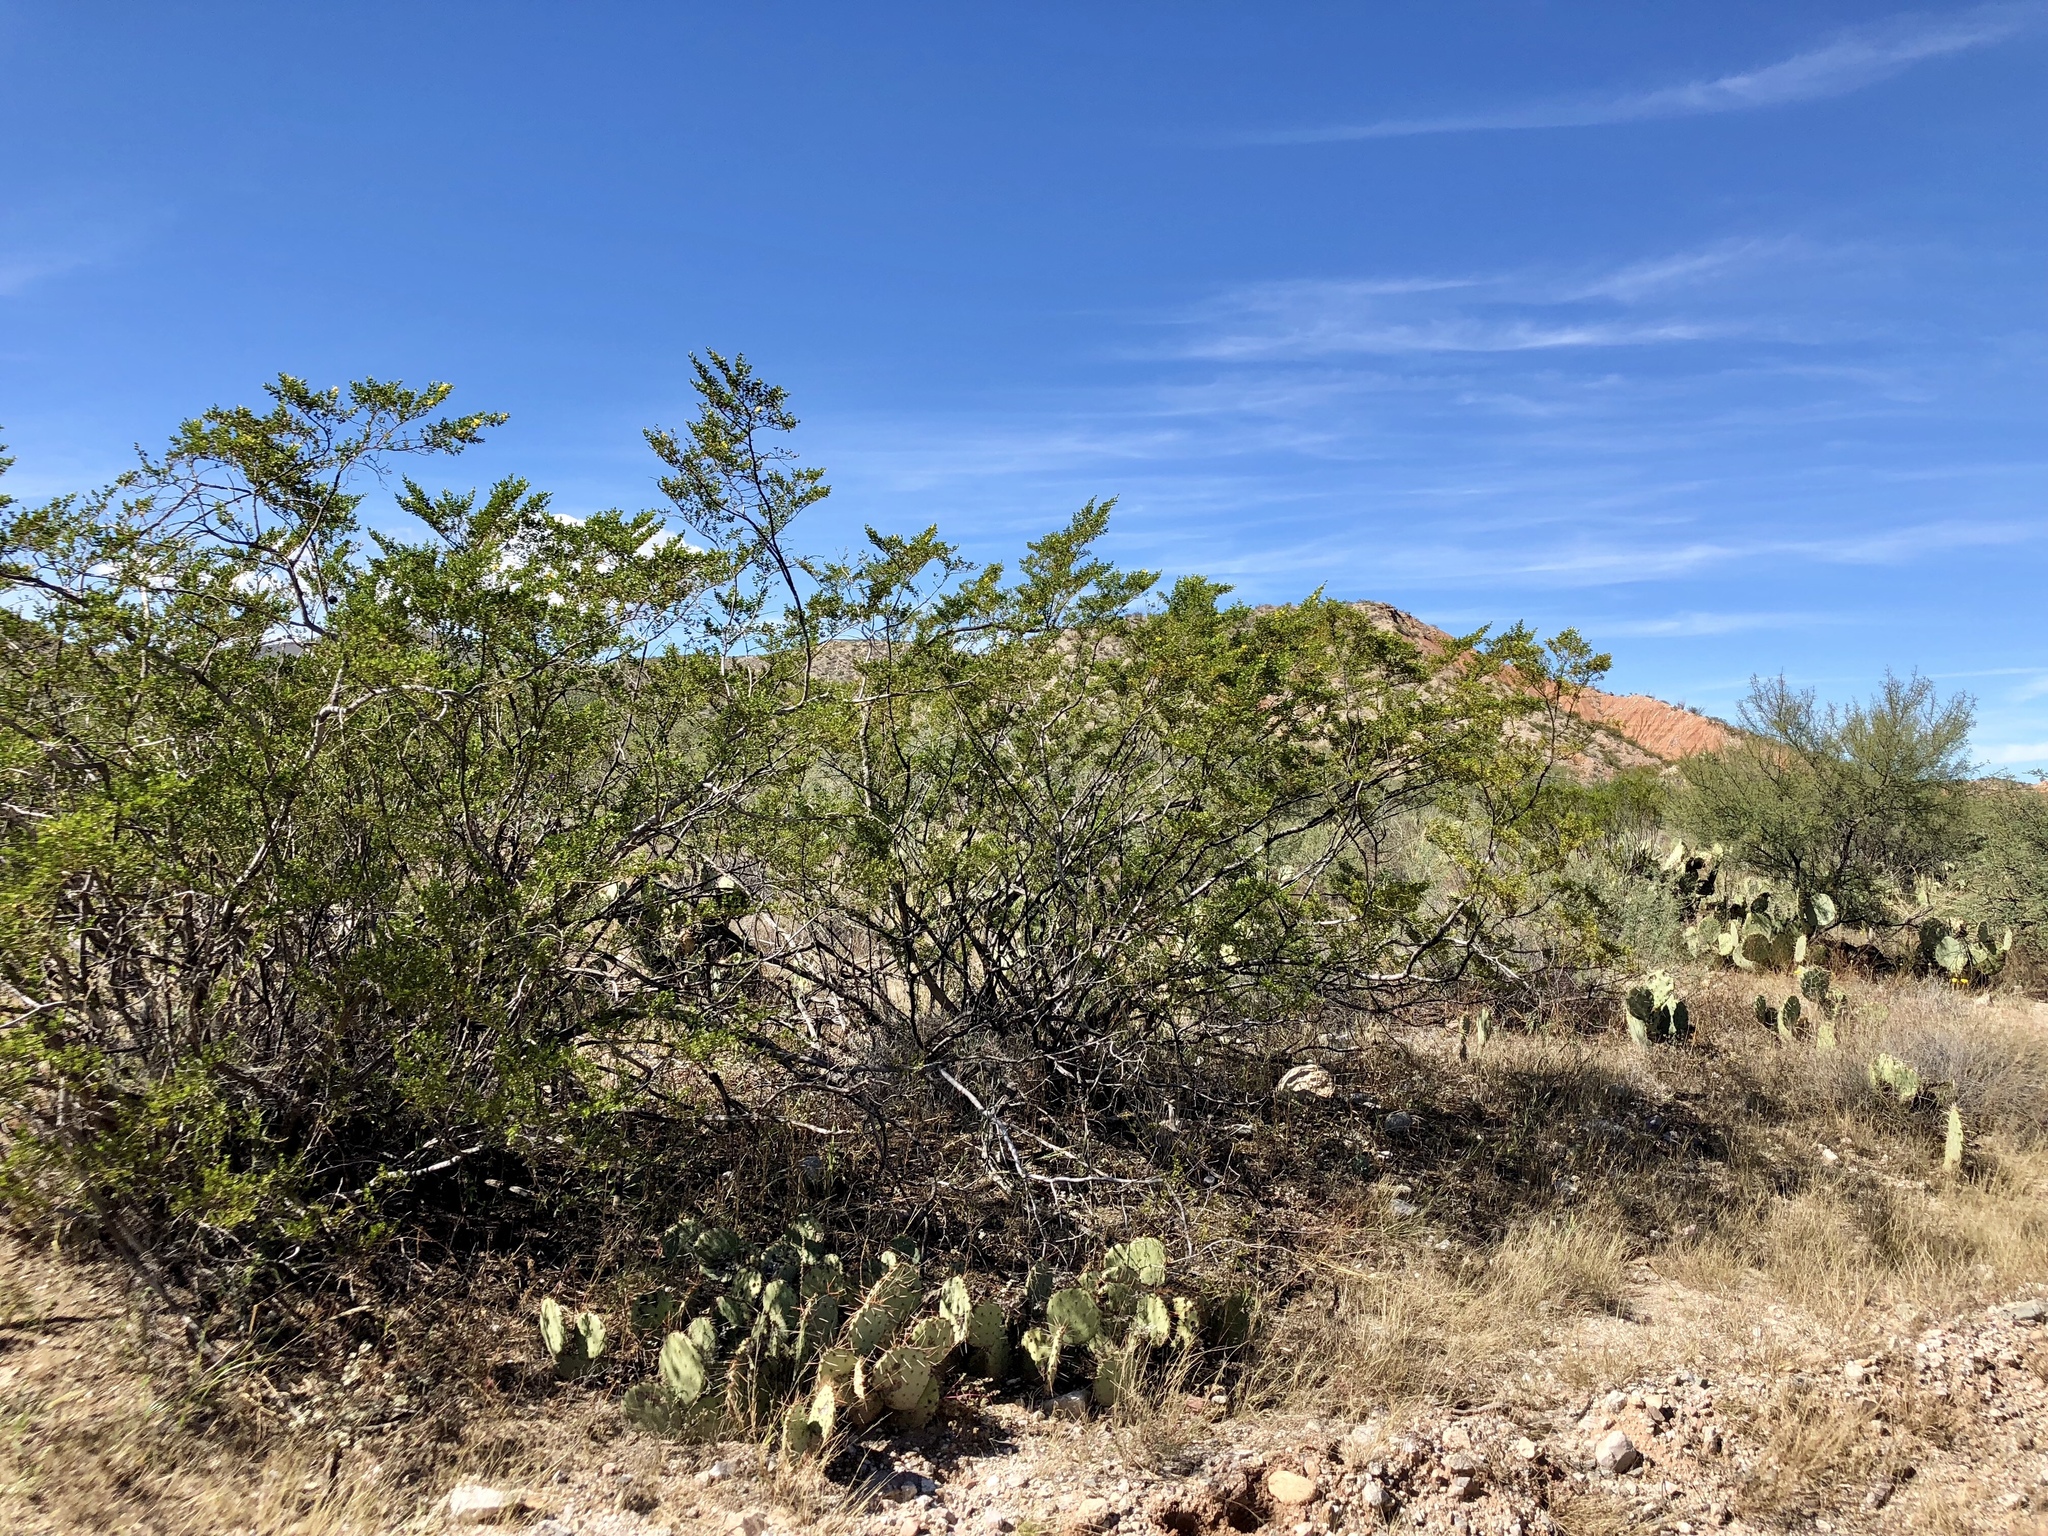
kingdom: Plantae
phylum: Tracheophyta
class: Magnoliopsida
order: Zygophyllales
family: Zygophyllaceae
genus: Larrea
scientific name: Larrea tridentata
